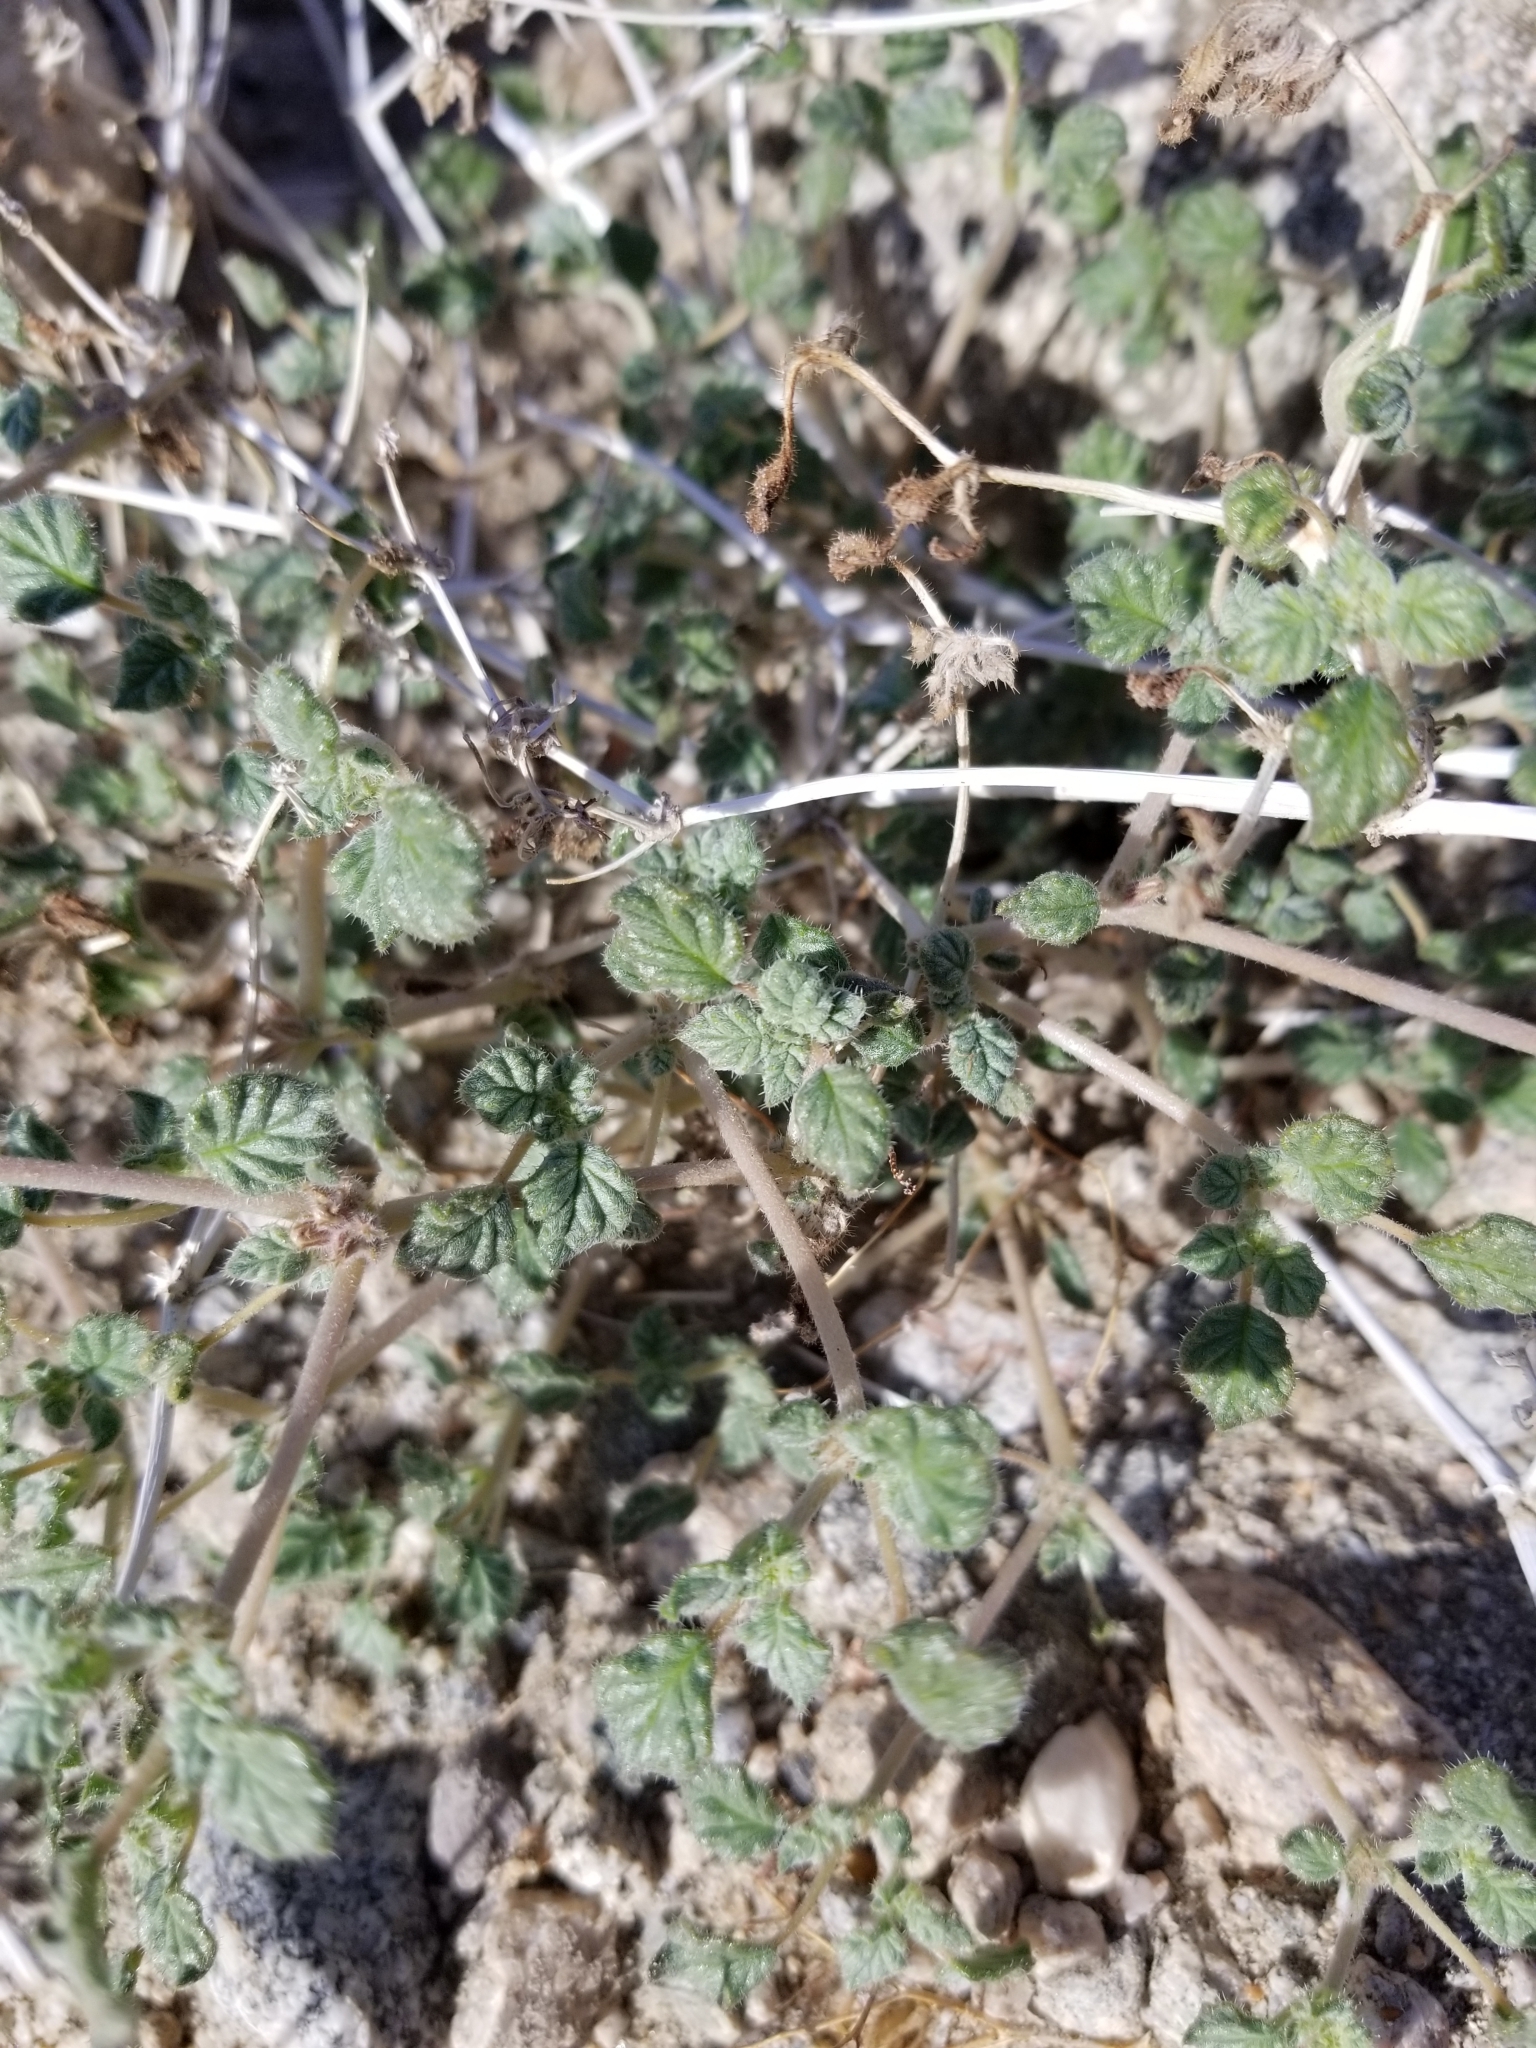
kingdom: Plantae
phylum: Tracheophyta
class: Magnoliopsida
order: Boraginales
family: Ehretiaceae
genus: Tiquilia
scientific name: Tiquilia palmeri
